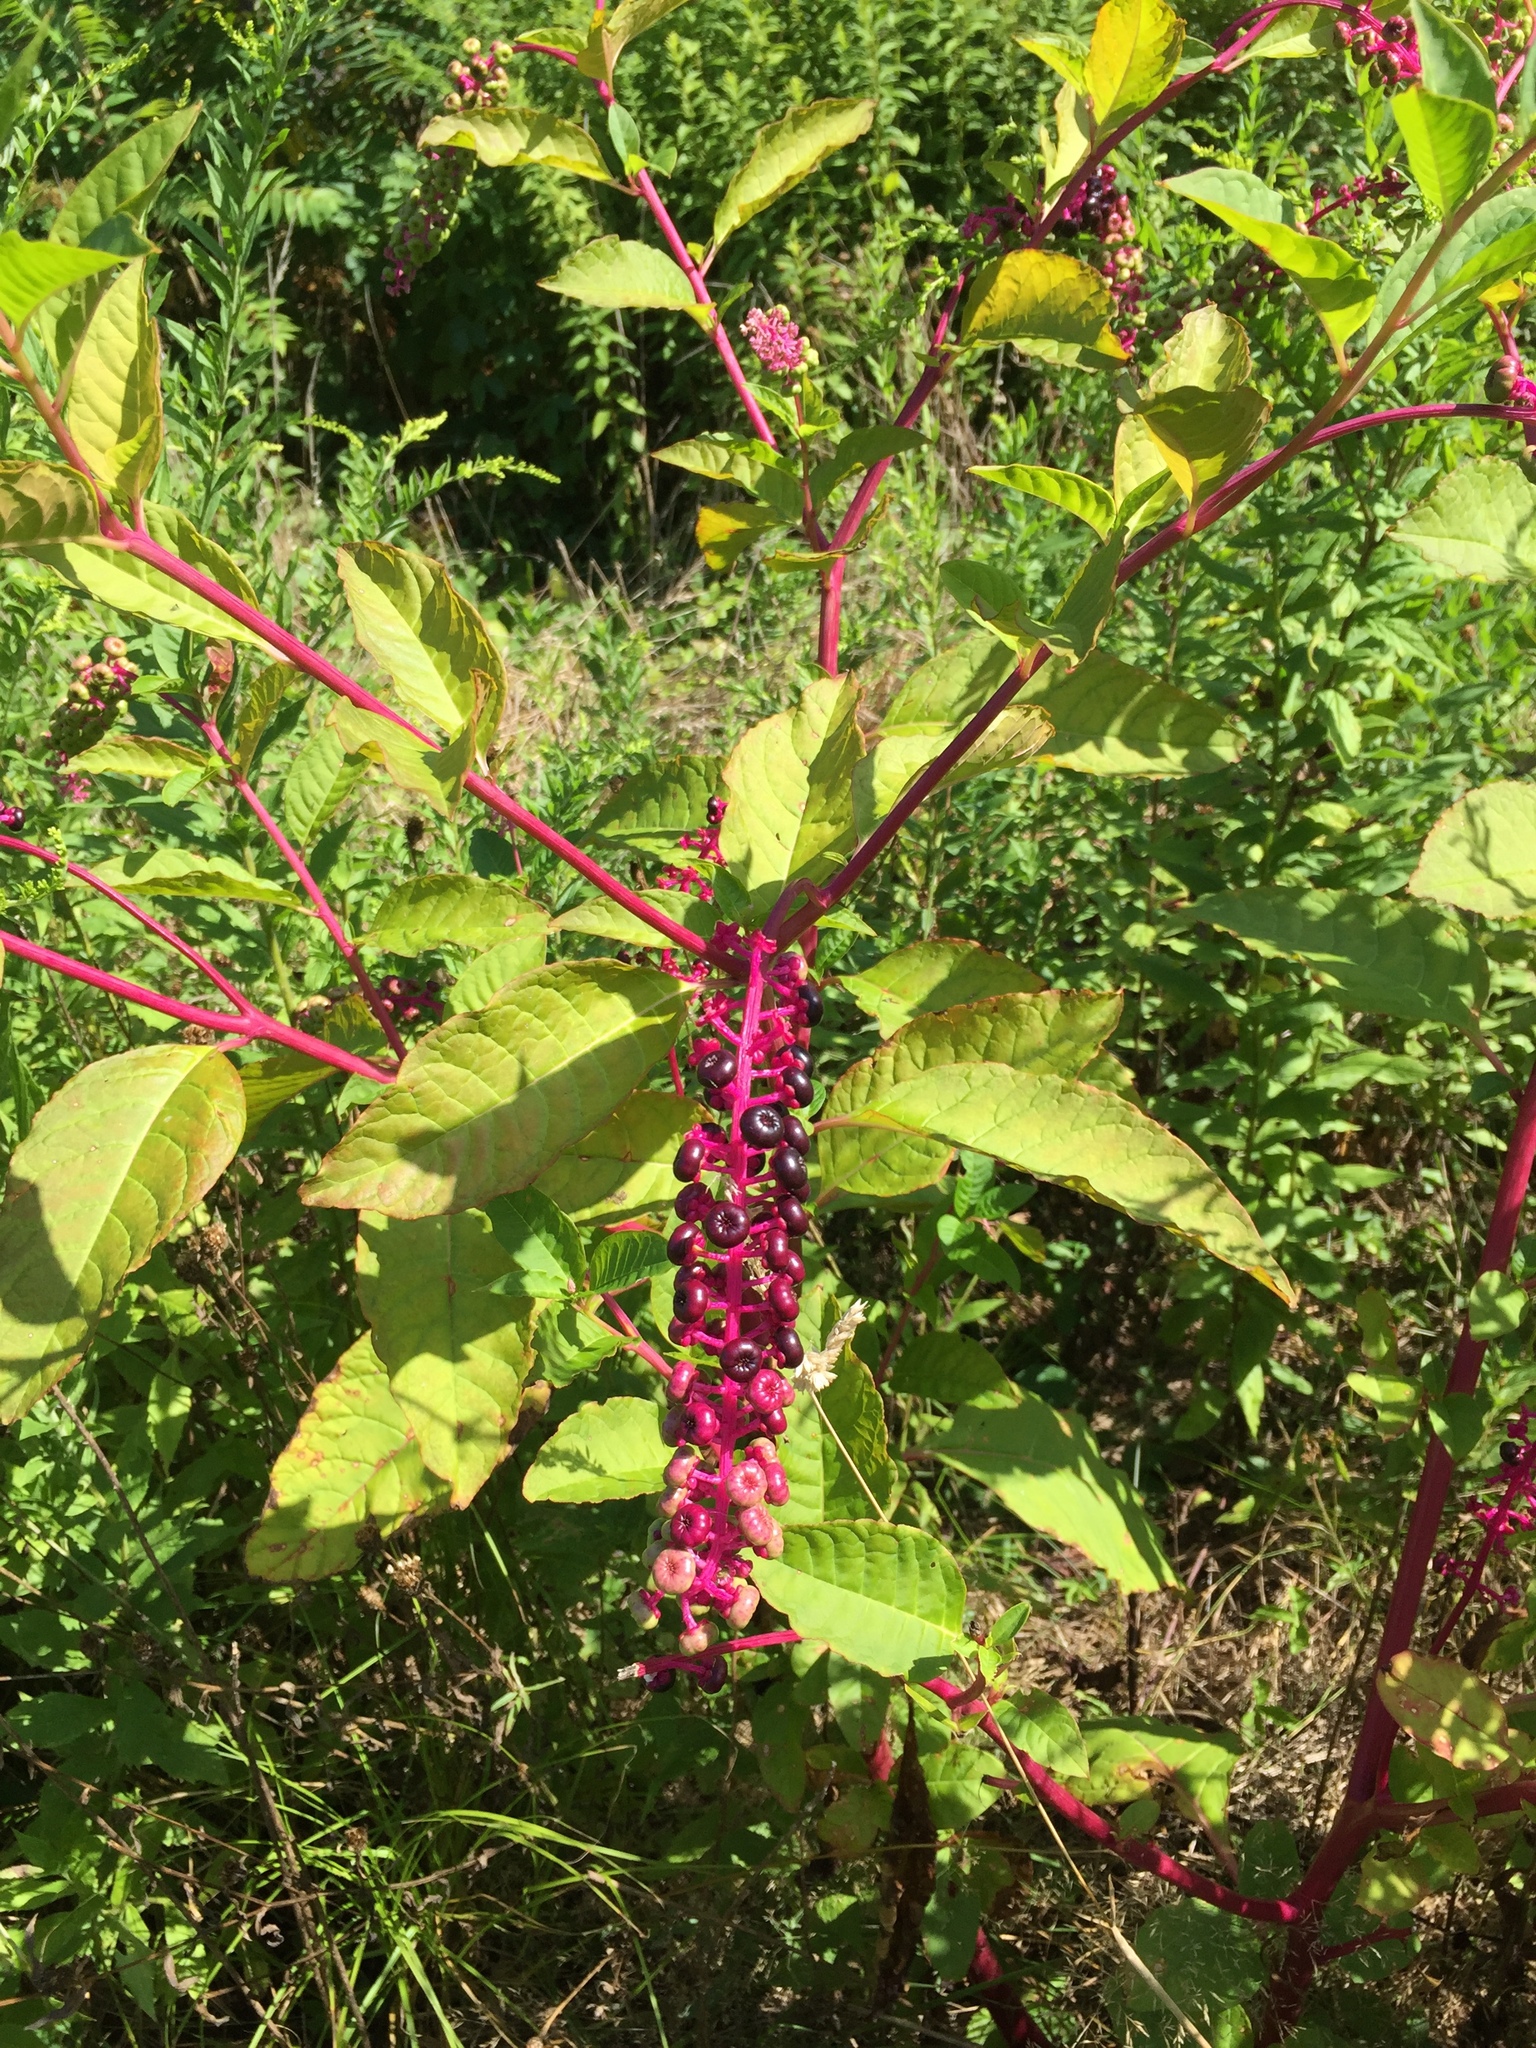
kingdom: Plantae
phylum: Tracheophyta
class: Magnoliopsida
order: Caryophyllales
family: Phytolaccaceae
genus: Phytolacca
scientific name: Phytolacca americana
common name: American pokeweed
